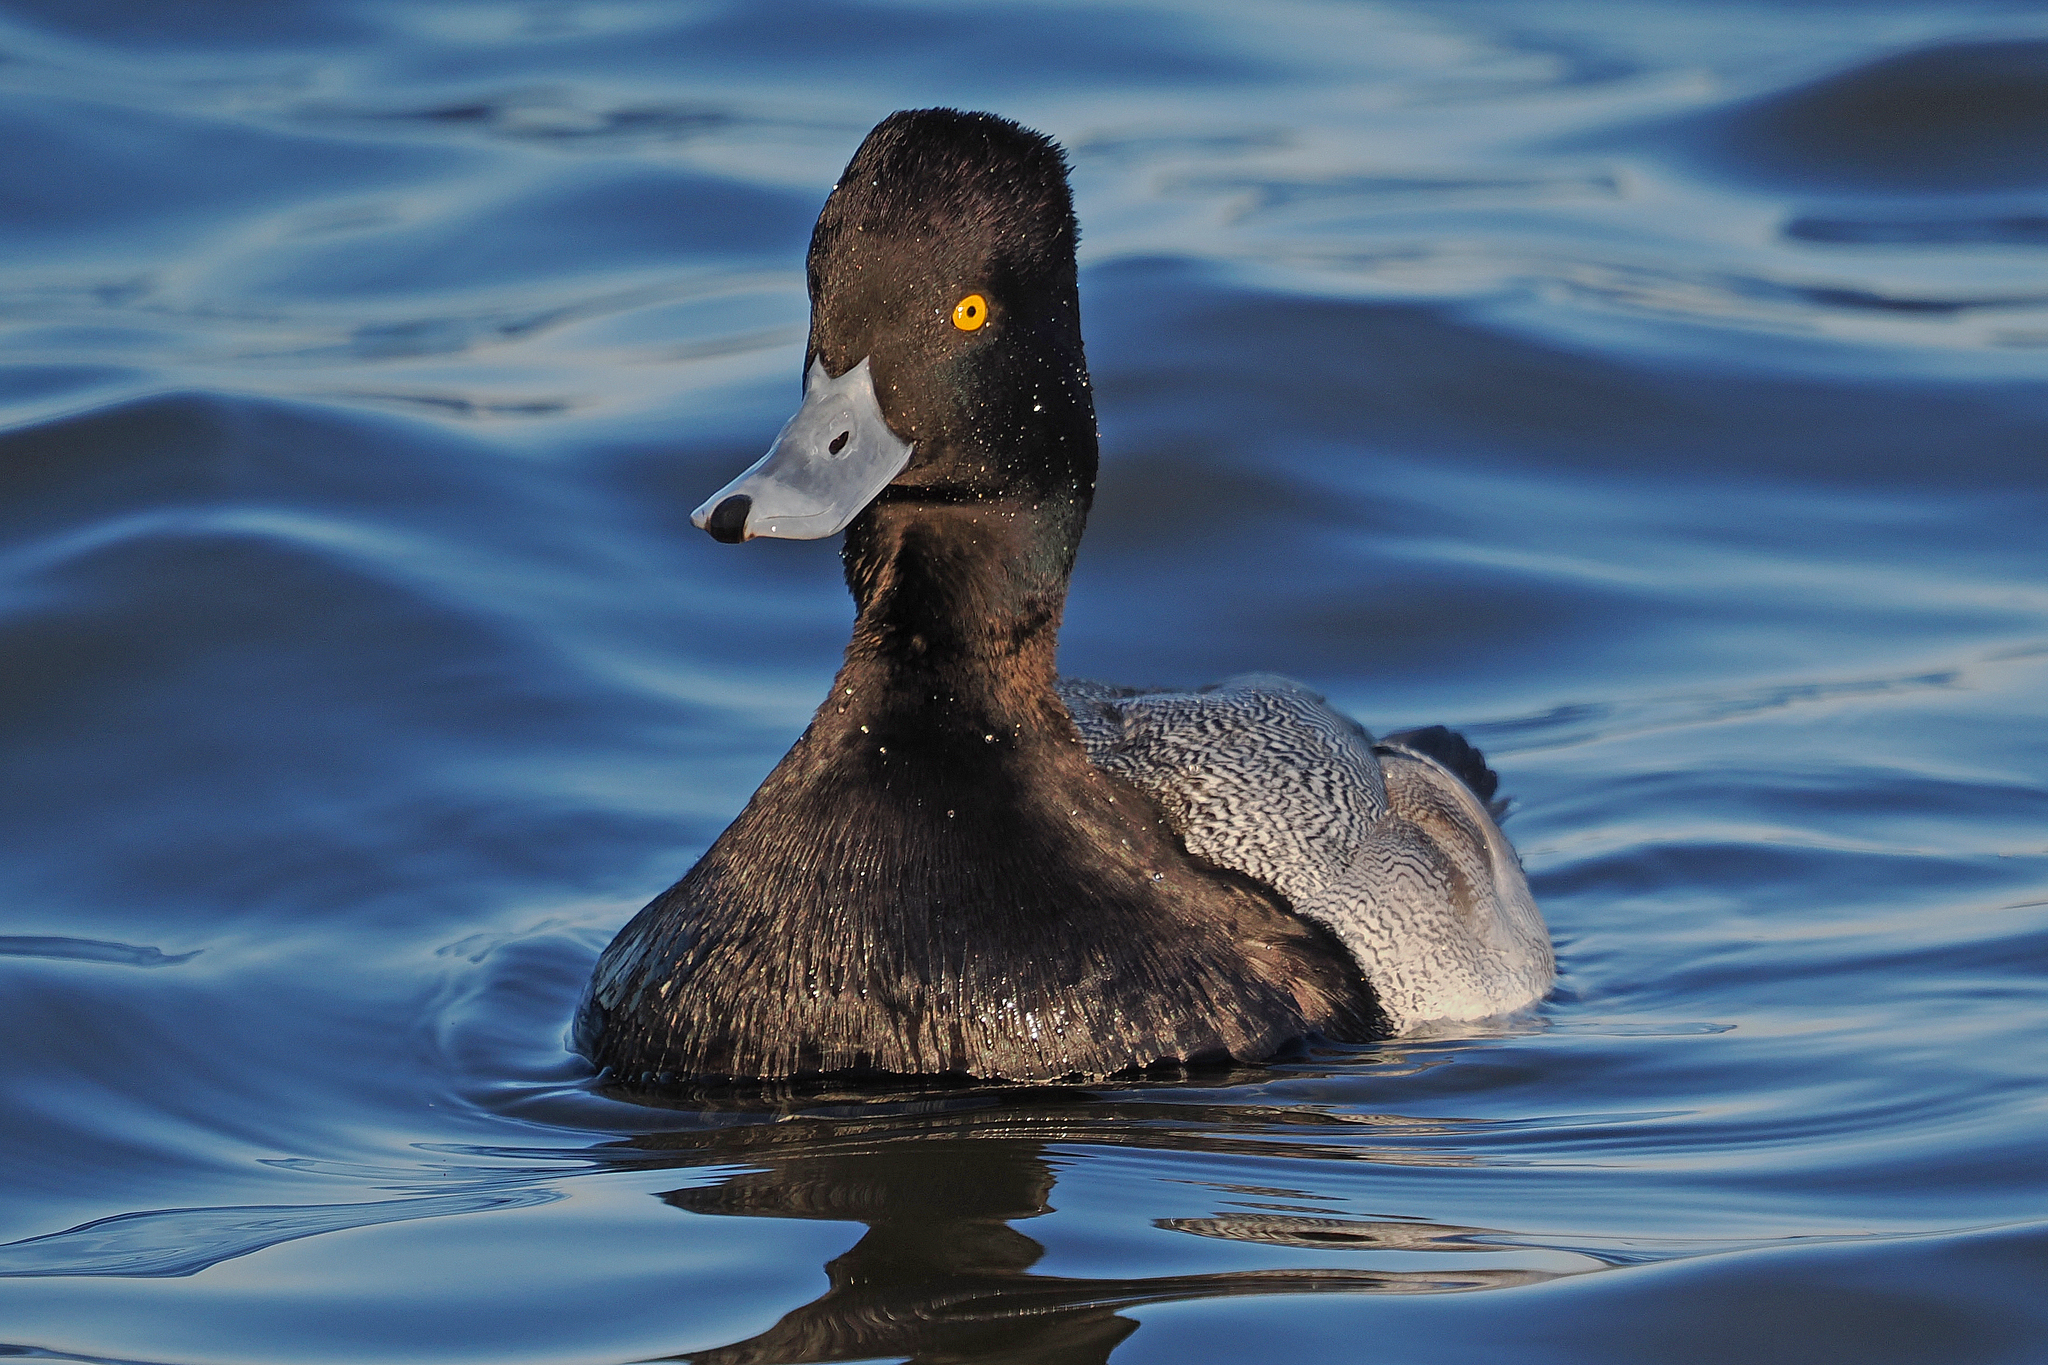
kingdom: Animalia
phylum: Chordata
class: Aves
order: Anseriformes
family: Anatidae
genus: Aythya
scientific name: Aythya affinis
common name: Lesser scaup
